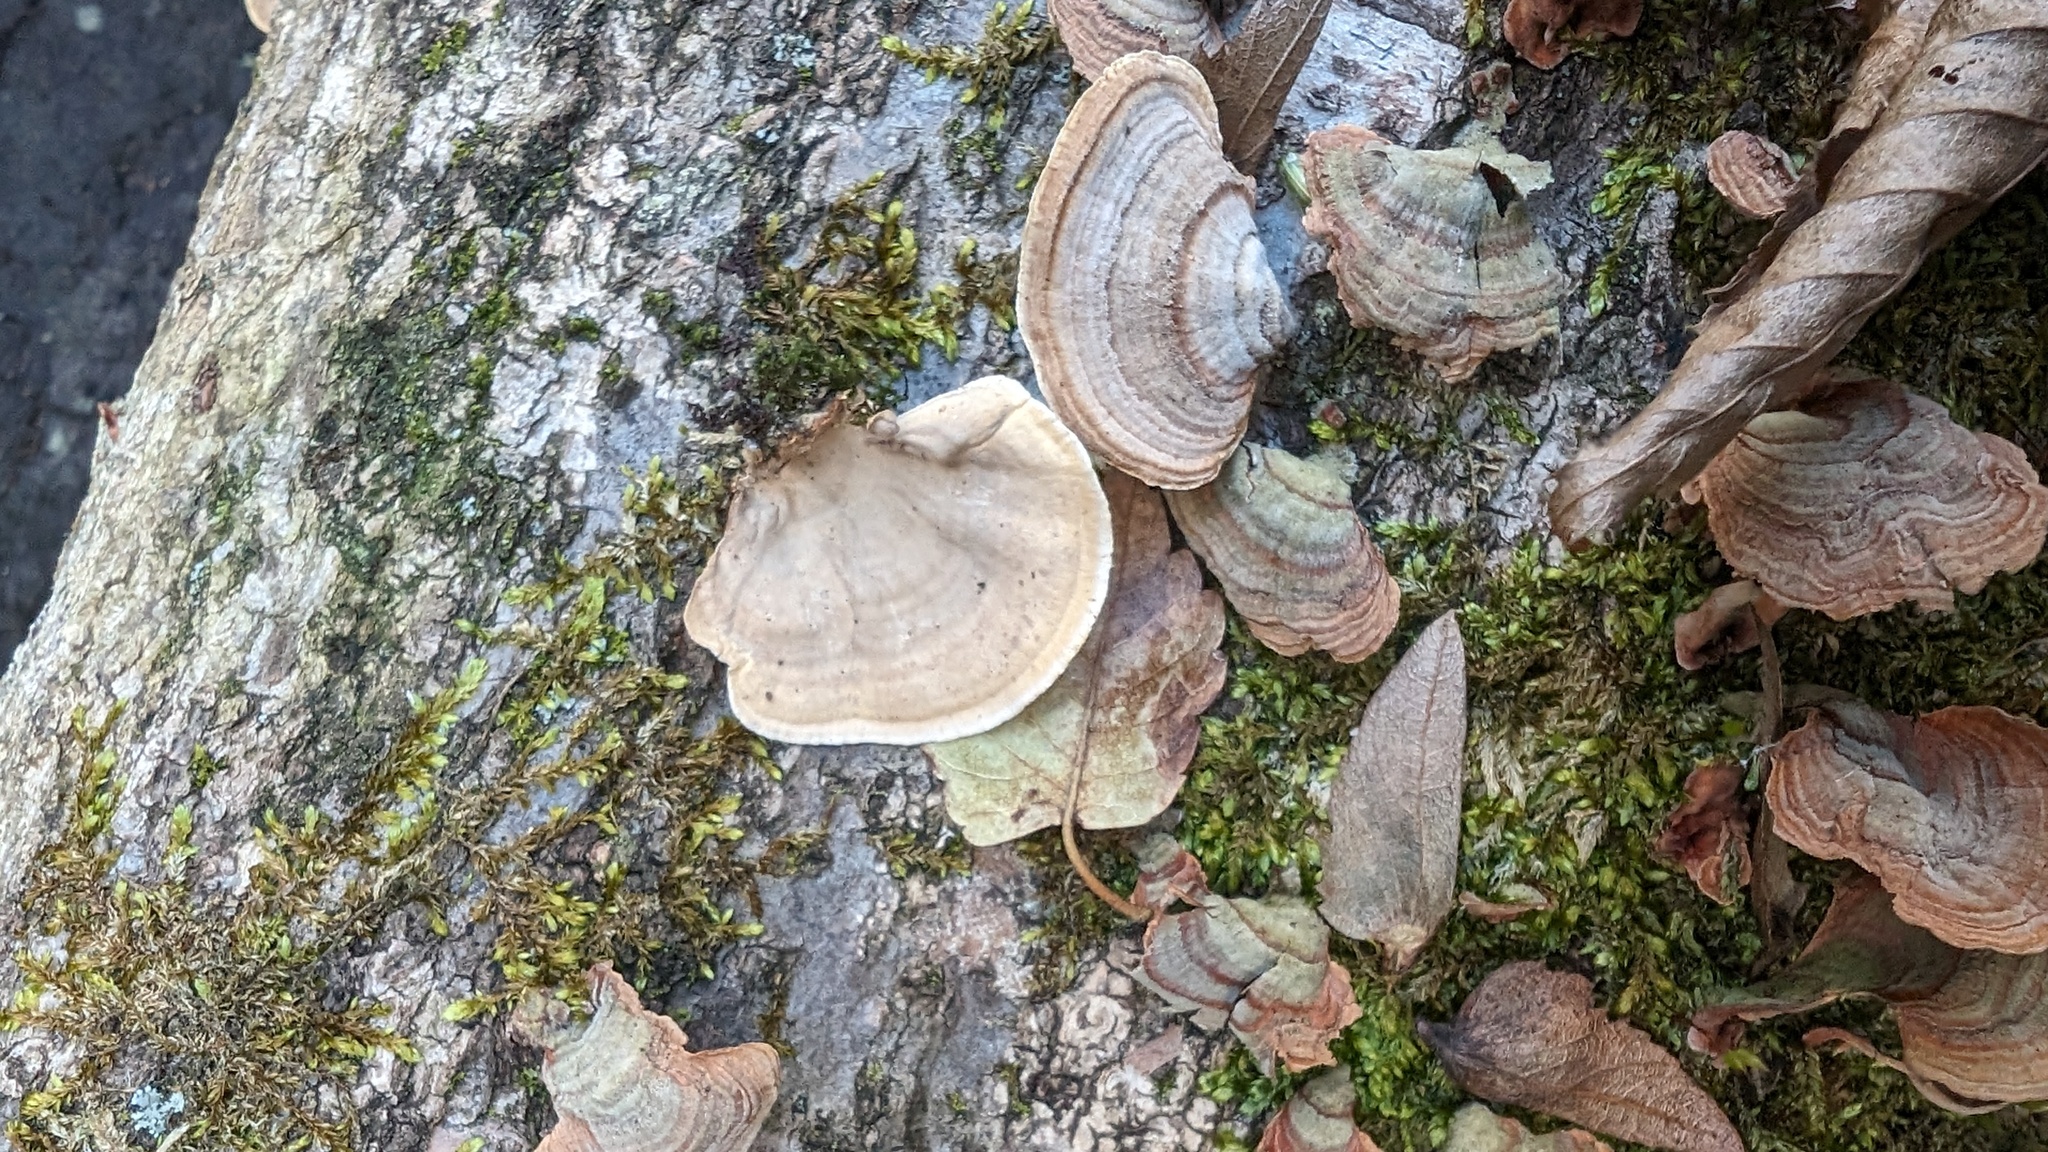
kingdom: Fungi
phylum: Basidiomycota
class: Agaricomycetes
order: Russulales
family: Stereaceae
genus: Stereum
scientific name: Stereum ostrea
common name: False turkeytail
